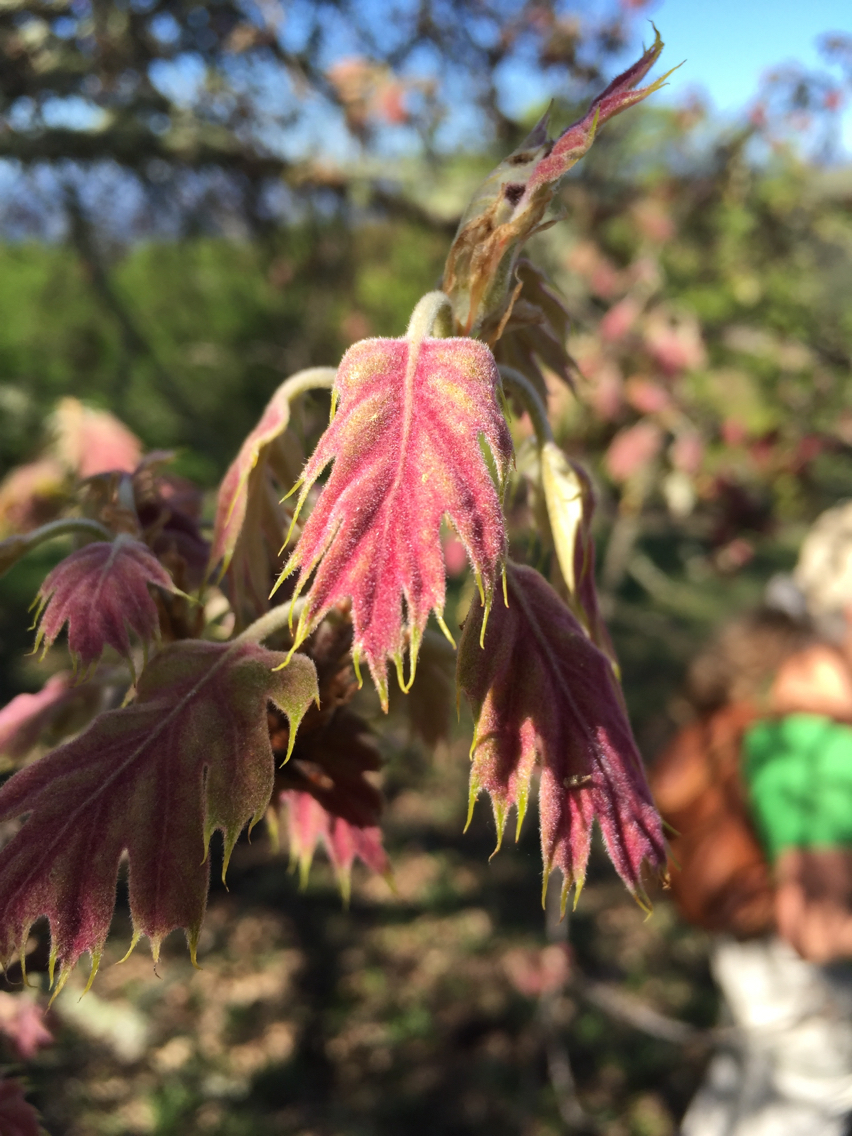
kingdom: Plantae
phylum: Tracheophyta
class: Magnoliopsida
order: Fagales
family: Fagaceae
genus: Quercus
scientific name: Quercus kelloggii
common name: California black oak
